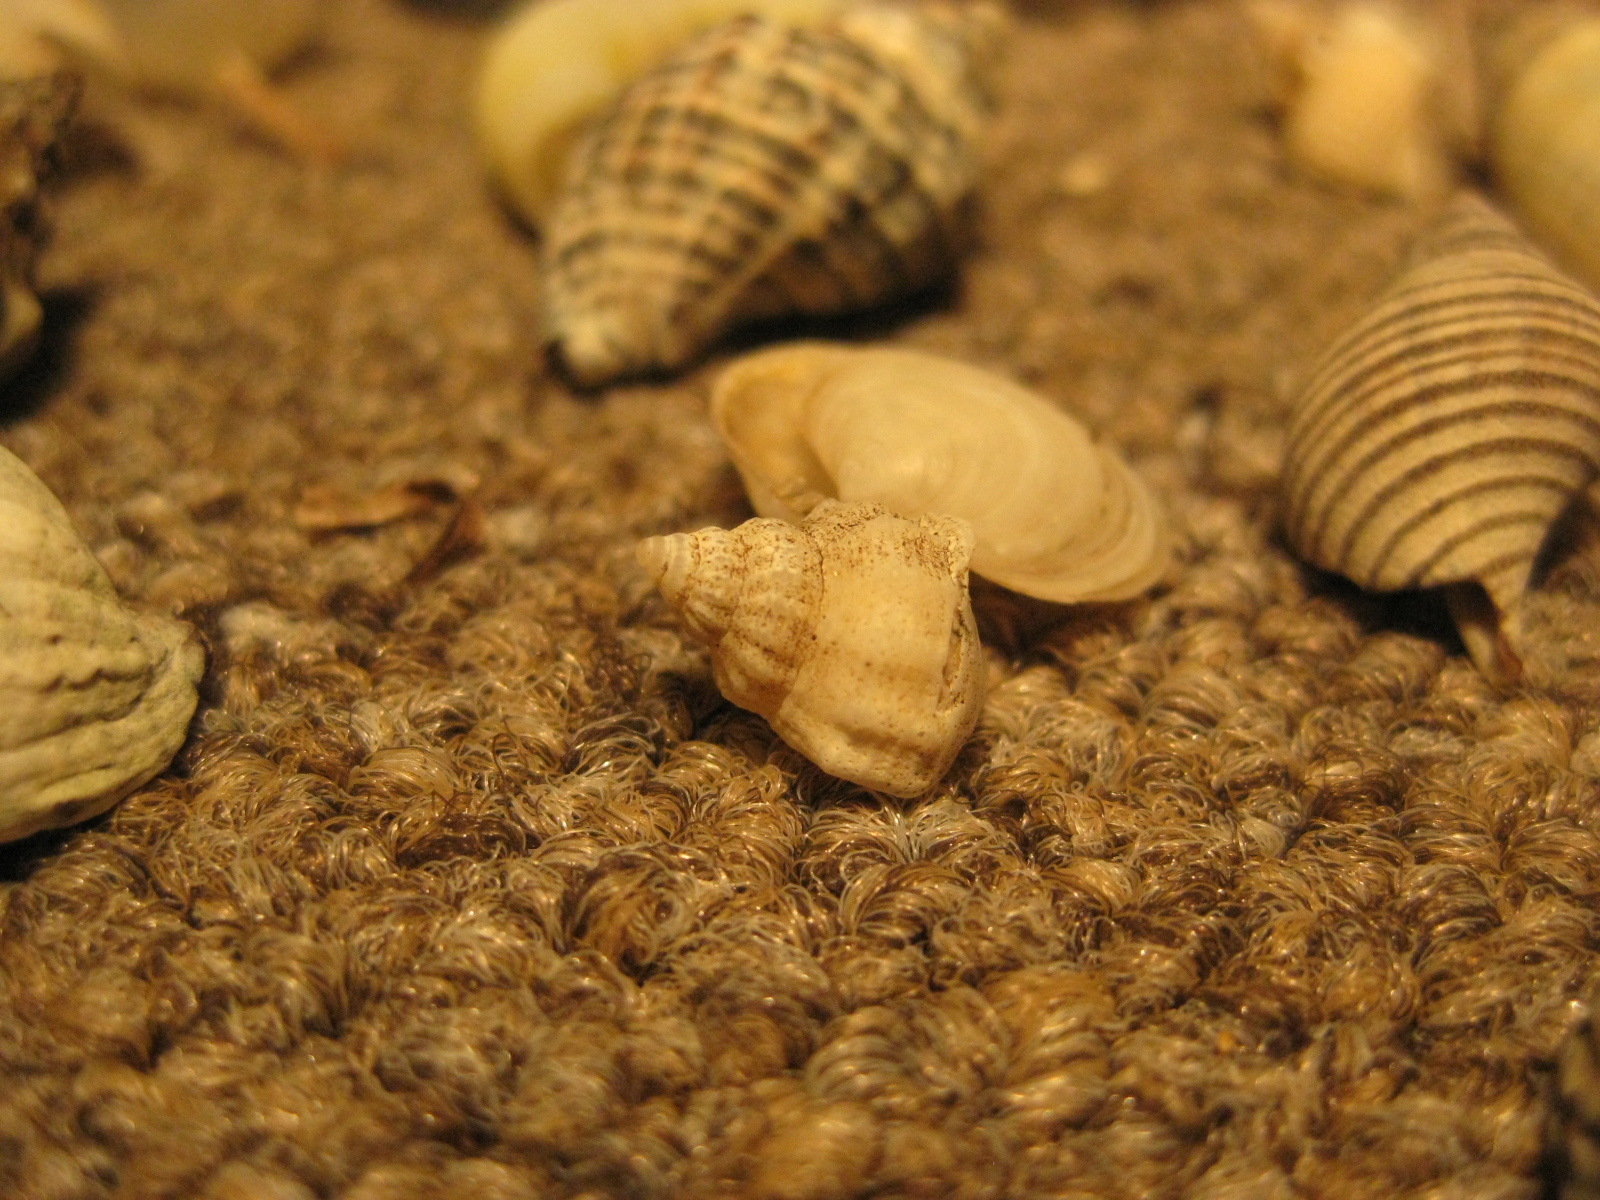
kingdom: Animalia
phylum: Mollusca
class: Gastropoda
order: Neogastropoda
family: Prosiphonidae
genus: Austrofusus
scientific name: Austrofusus glans
